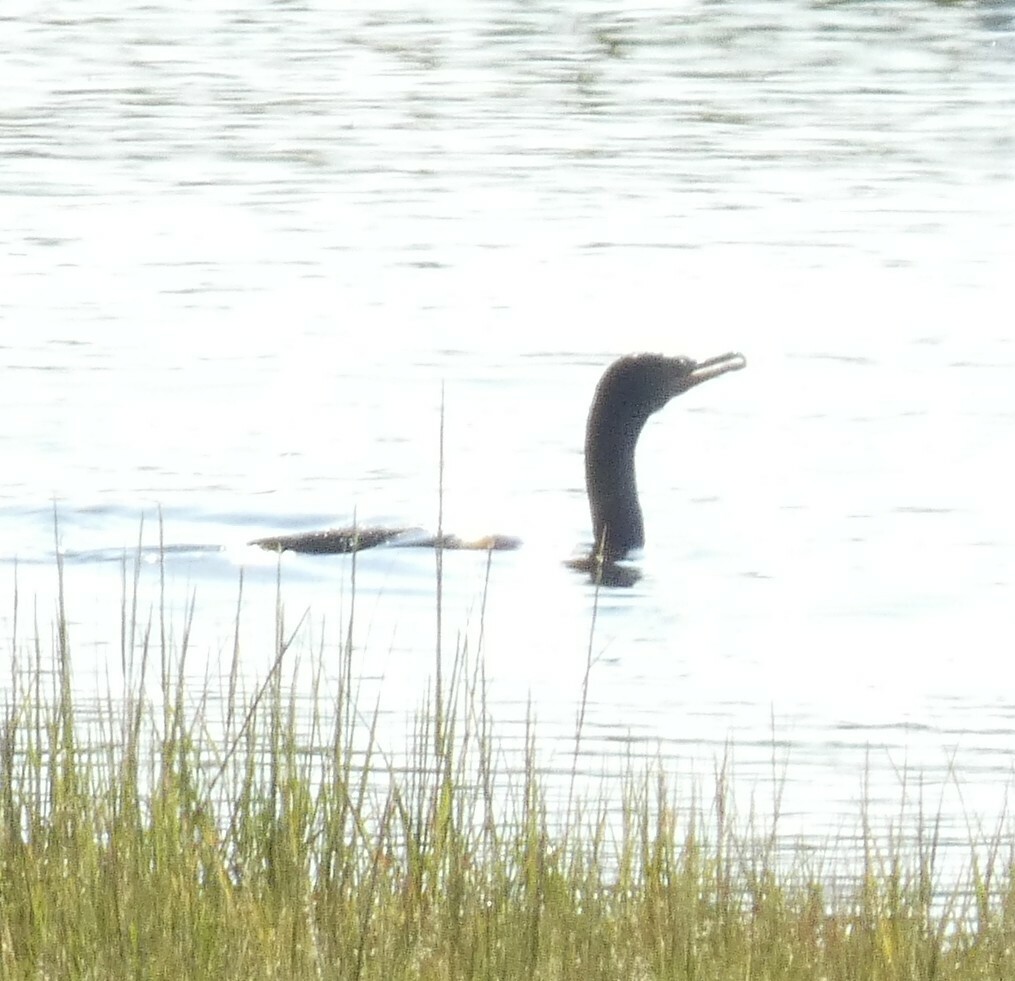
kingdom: Animalia
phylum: Chordata
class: Aves
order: Suliformes
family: Phalacrocoracidae
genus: Phalacrocorax
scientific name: Phalacrocorax auritus
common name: Double-crested cormorant
